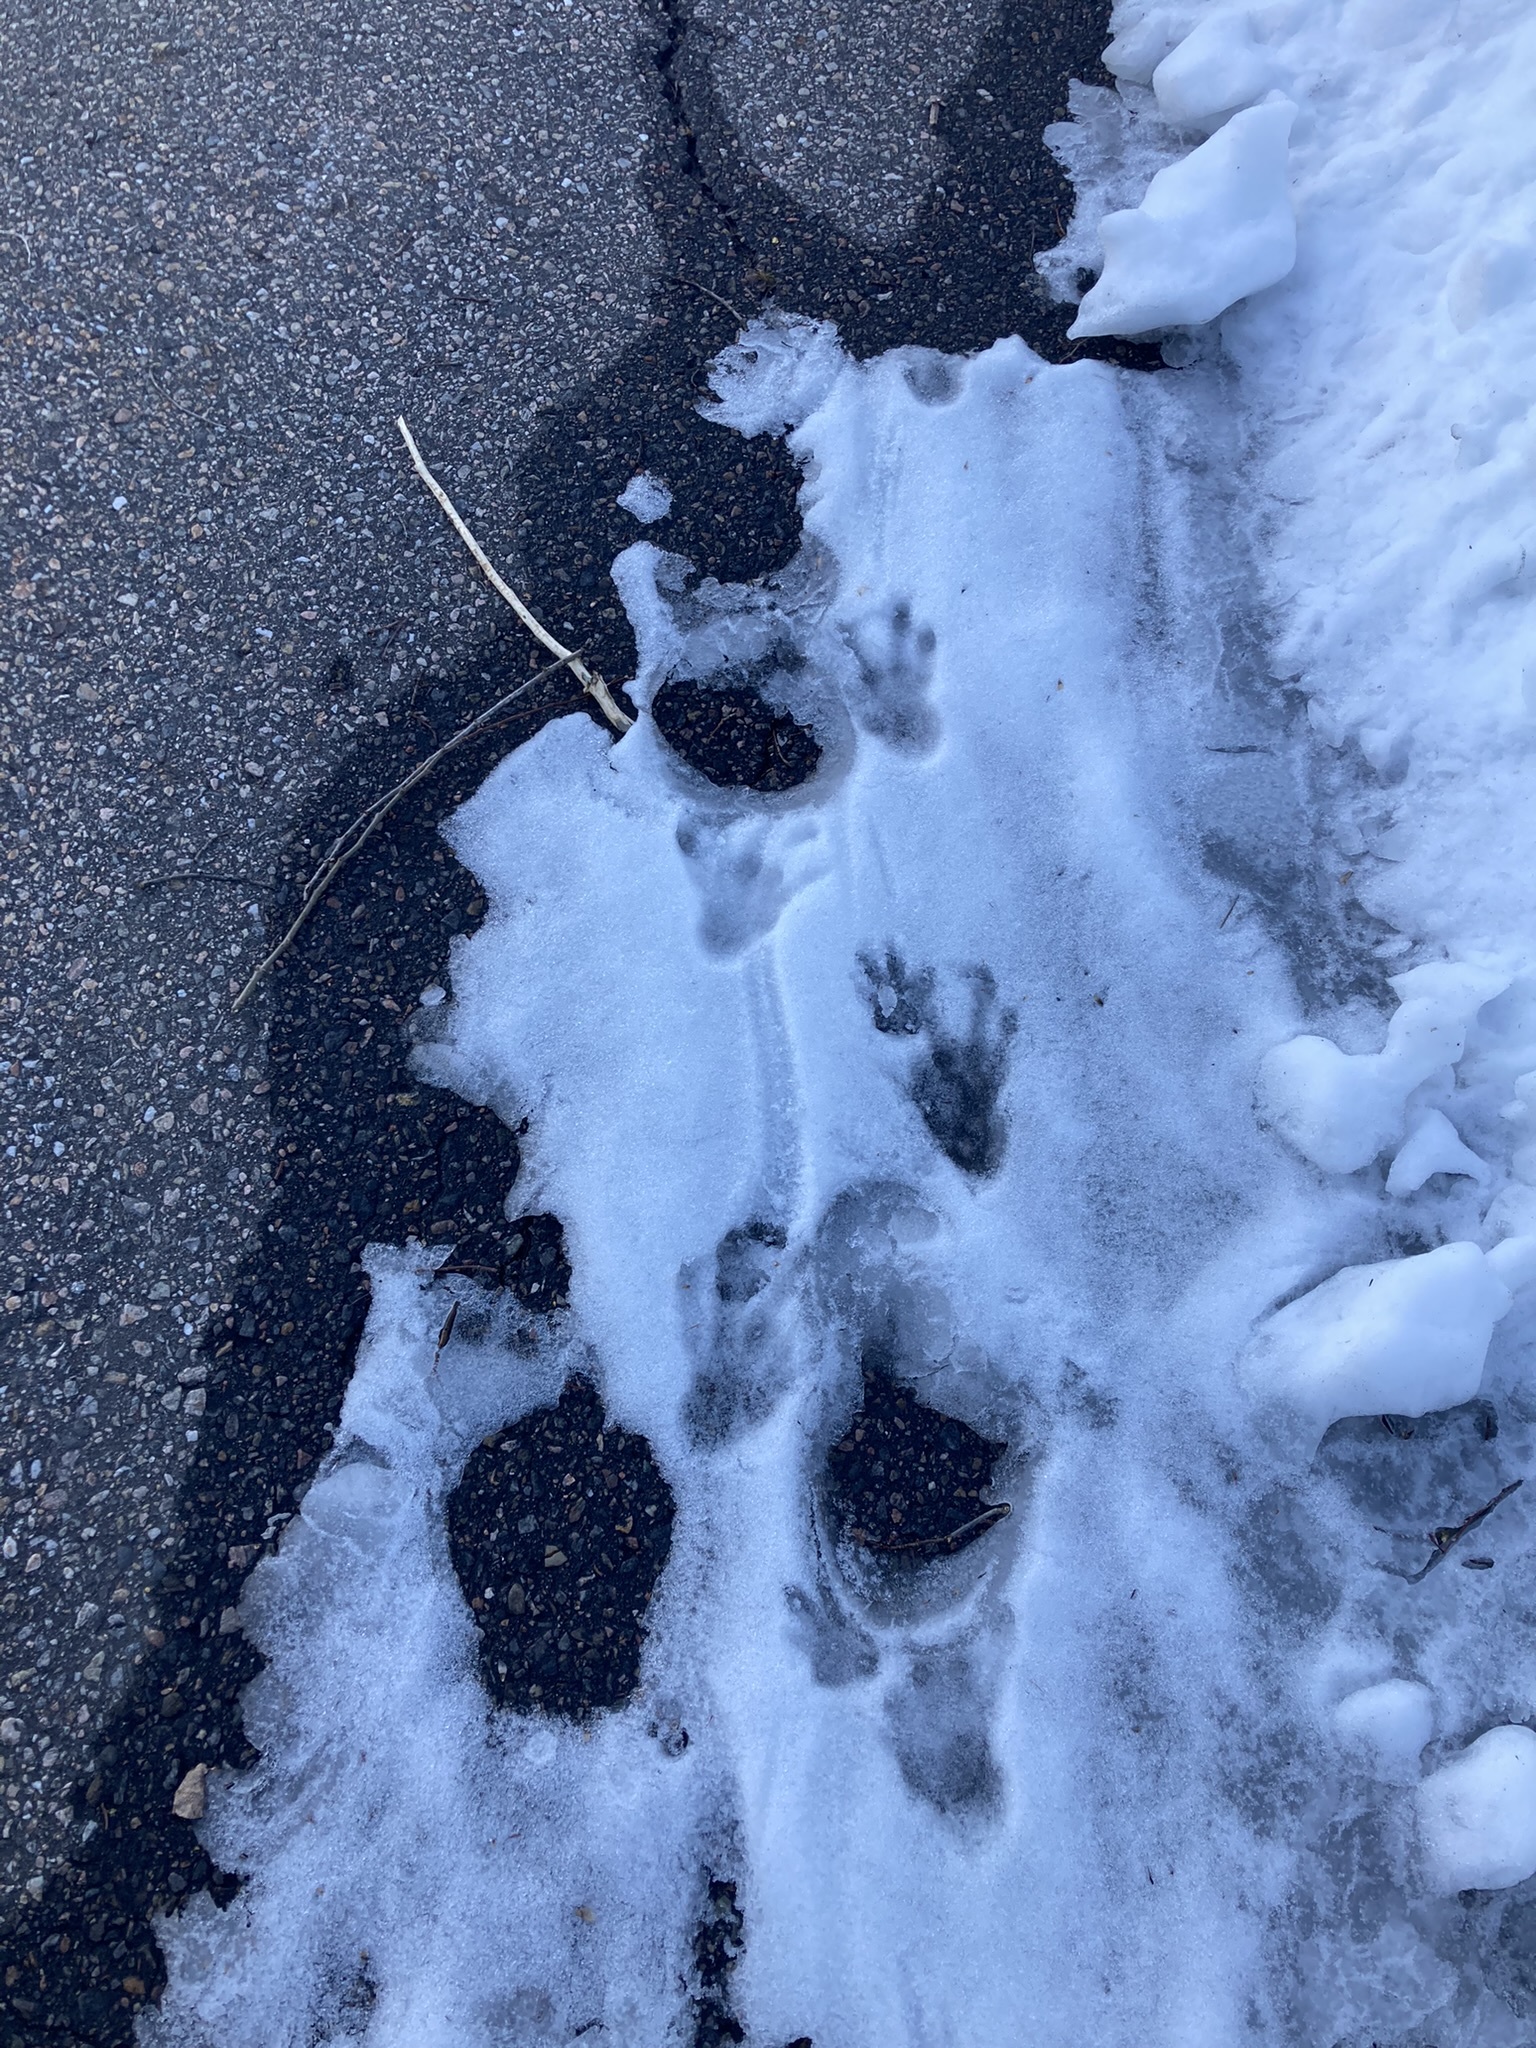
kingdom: Animalia
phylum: Chordata
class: Mammalia
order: Rodentia
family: Castoridae
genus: Castor
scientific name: Castor canadensis
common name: American beaver
